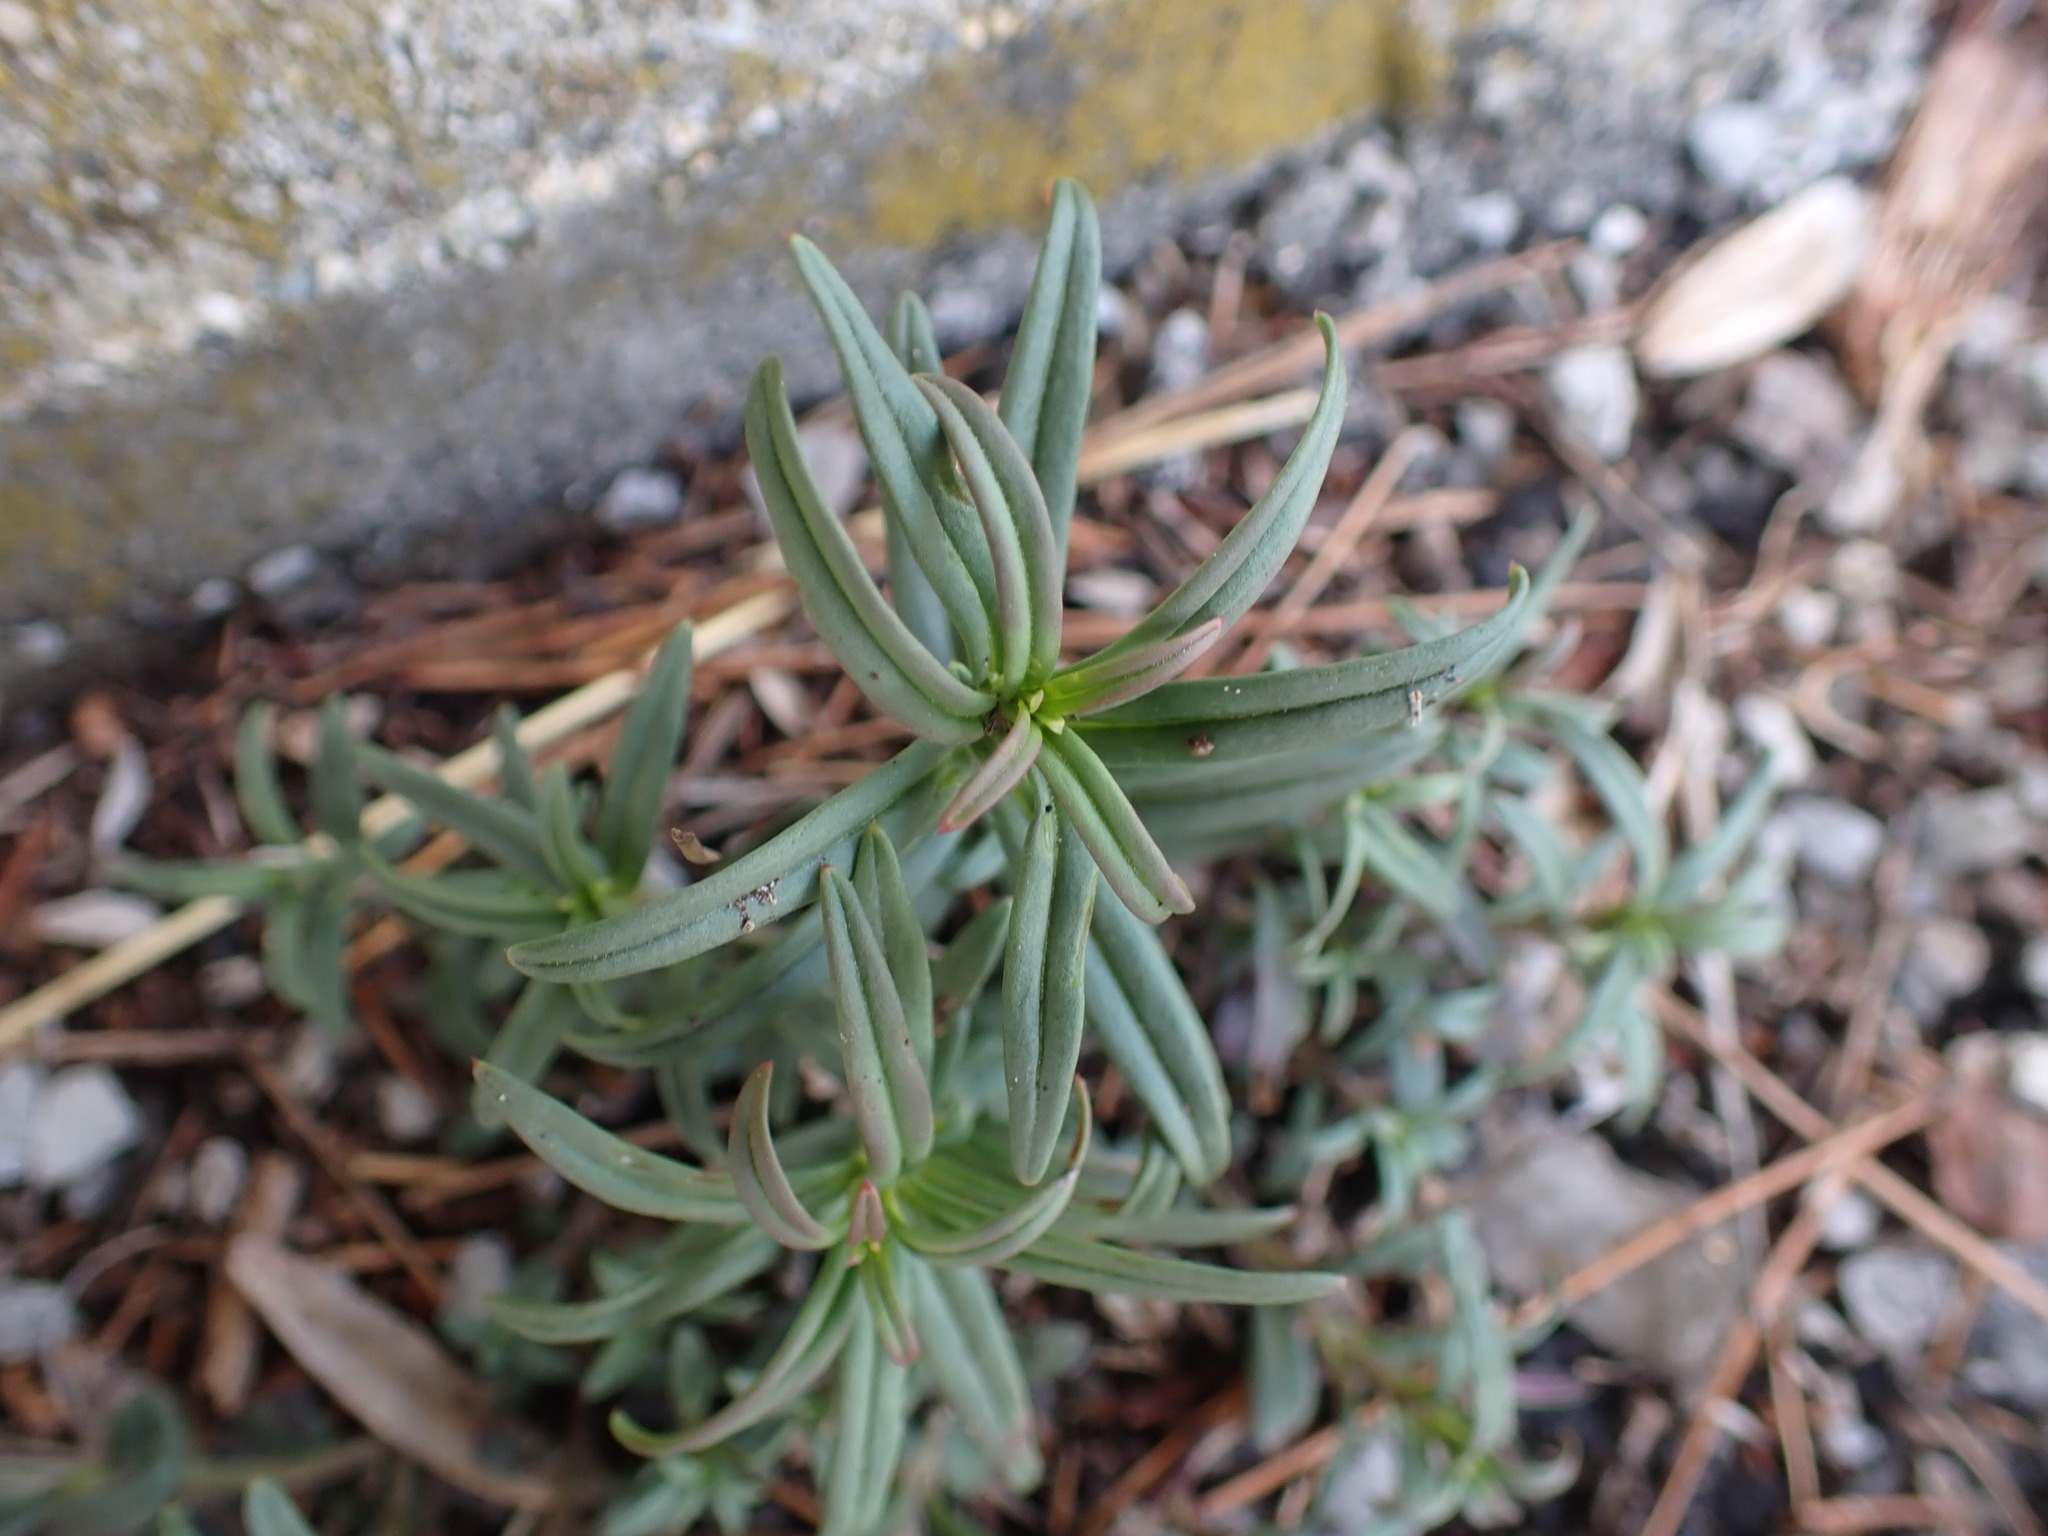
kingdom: Plantae
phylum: Tracheophyta
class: Magnoliopsida
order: Lamiales
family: Plantaginaceae
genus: Misopates
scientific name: Misopates orontium
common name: Weasel's-snout
